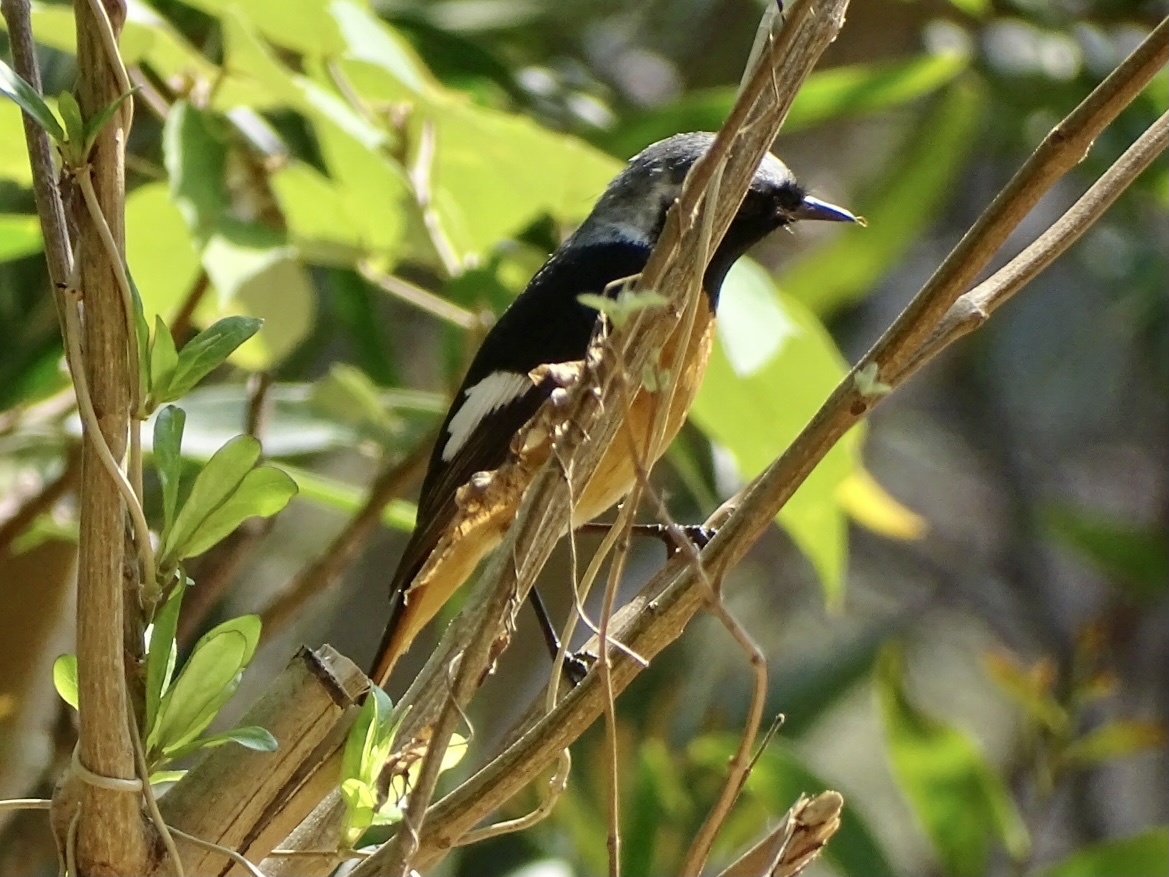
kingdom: Animalia
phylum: Chordata
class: Aves
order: Passeriformes
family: Muscicapidae
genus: Phoenicurus
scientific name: Phoenicurus auroreus
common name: Daurian redstart
